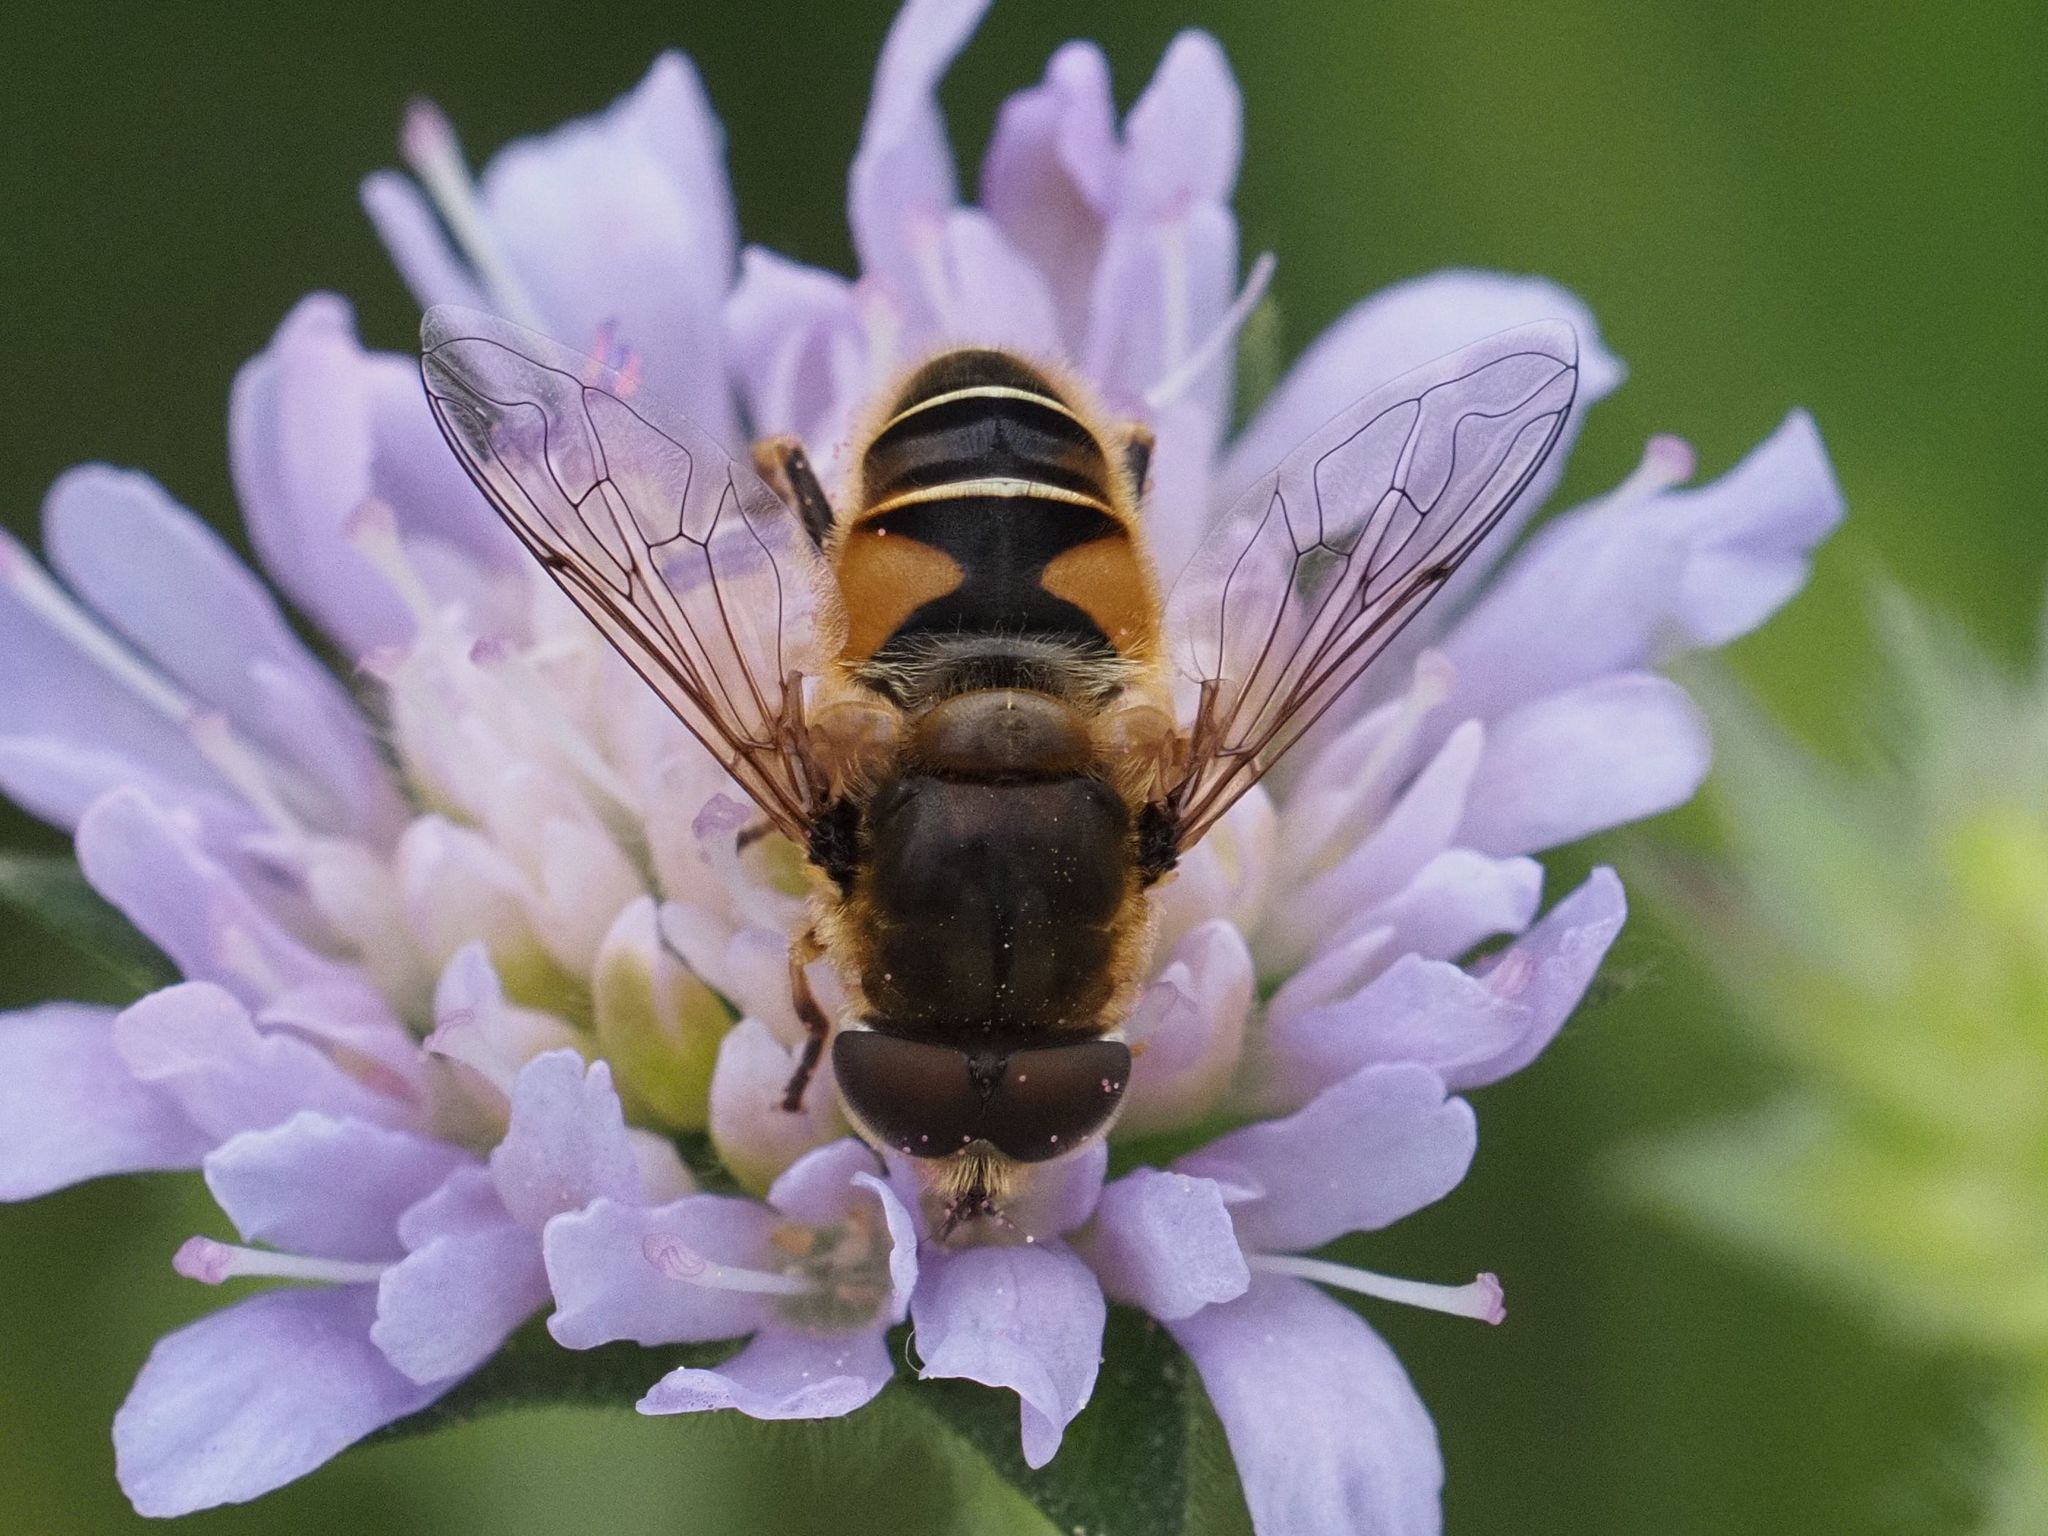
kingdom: Animalia
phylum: Arthropoda
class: Insecta
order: Diptera
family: Syrphidae
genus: Eristalis
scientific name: Eristalis nemorum
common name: Orange-spined drone fly
